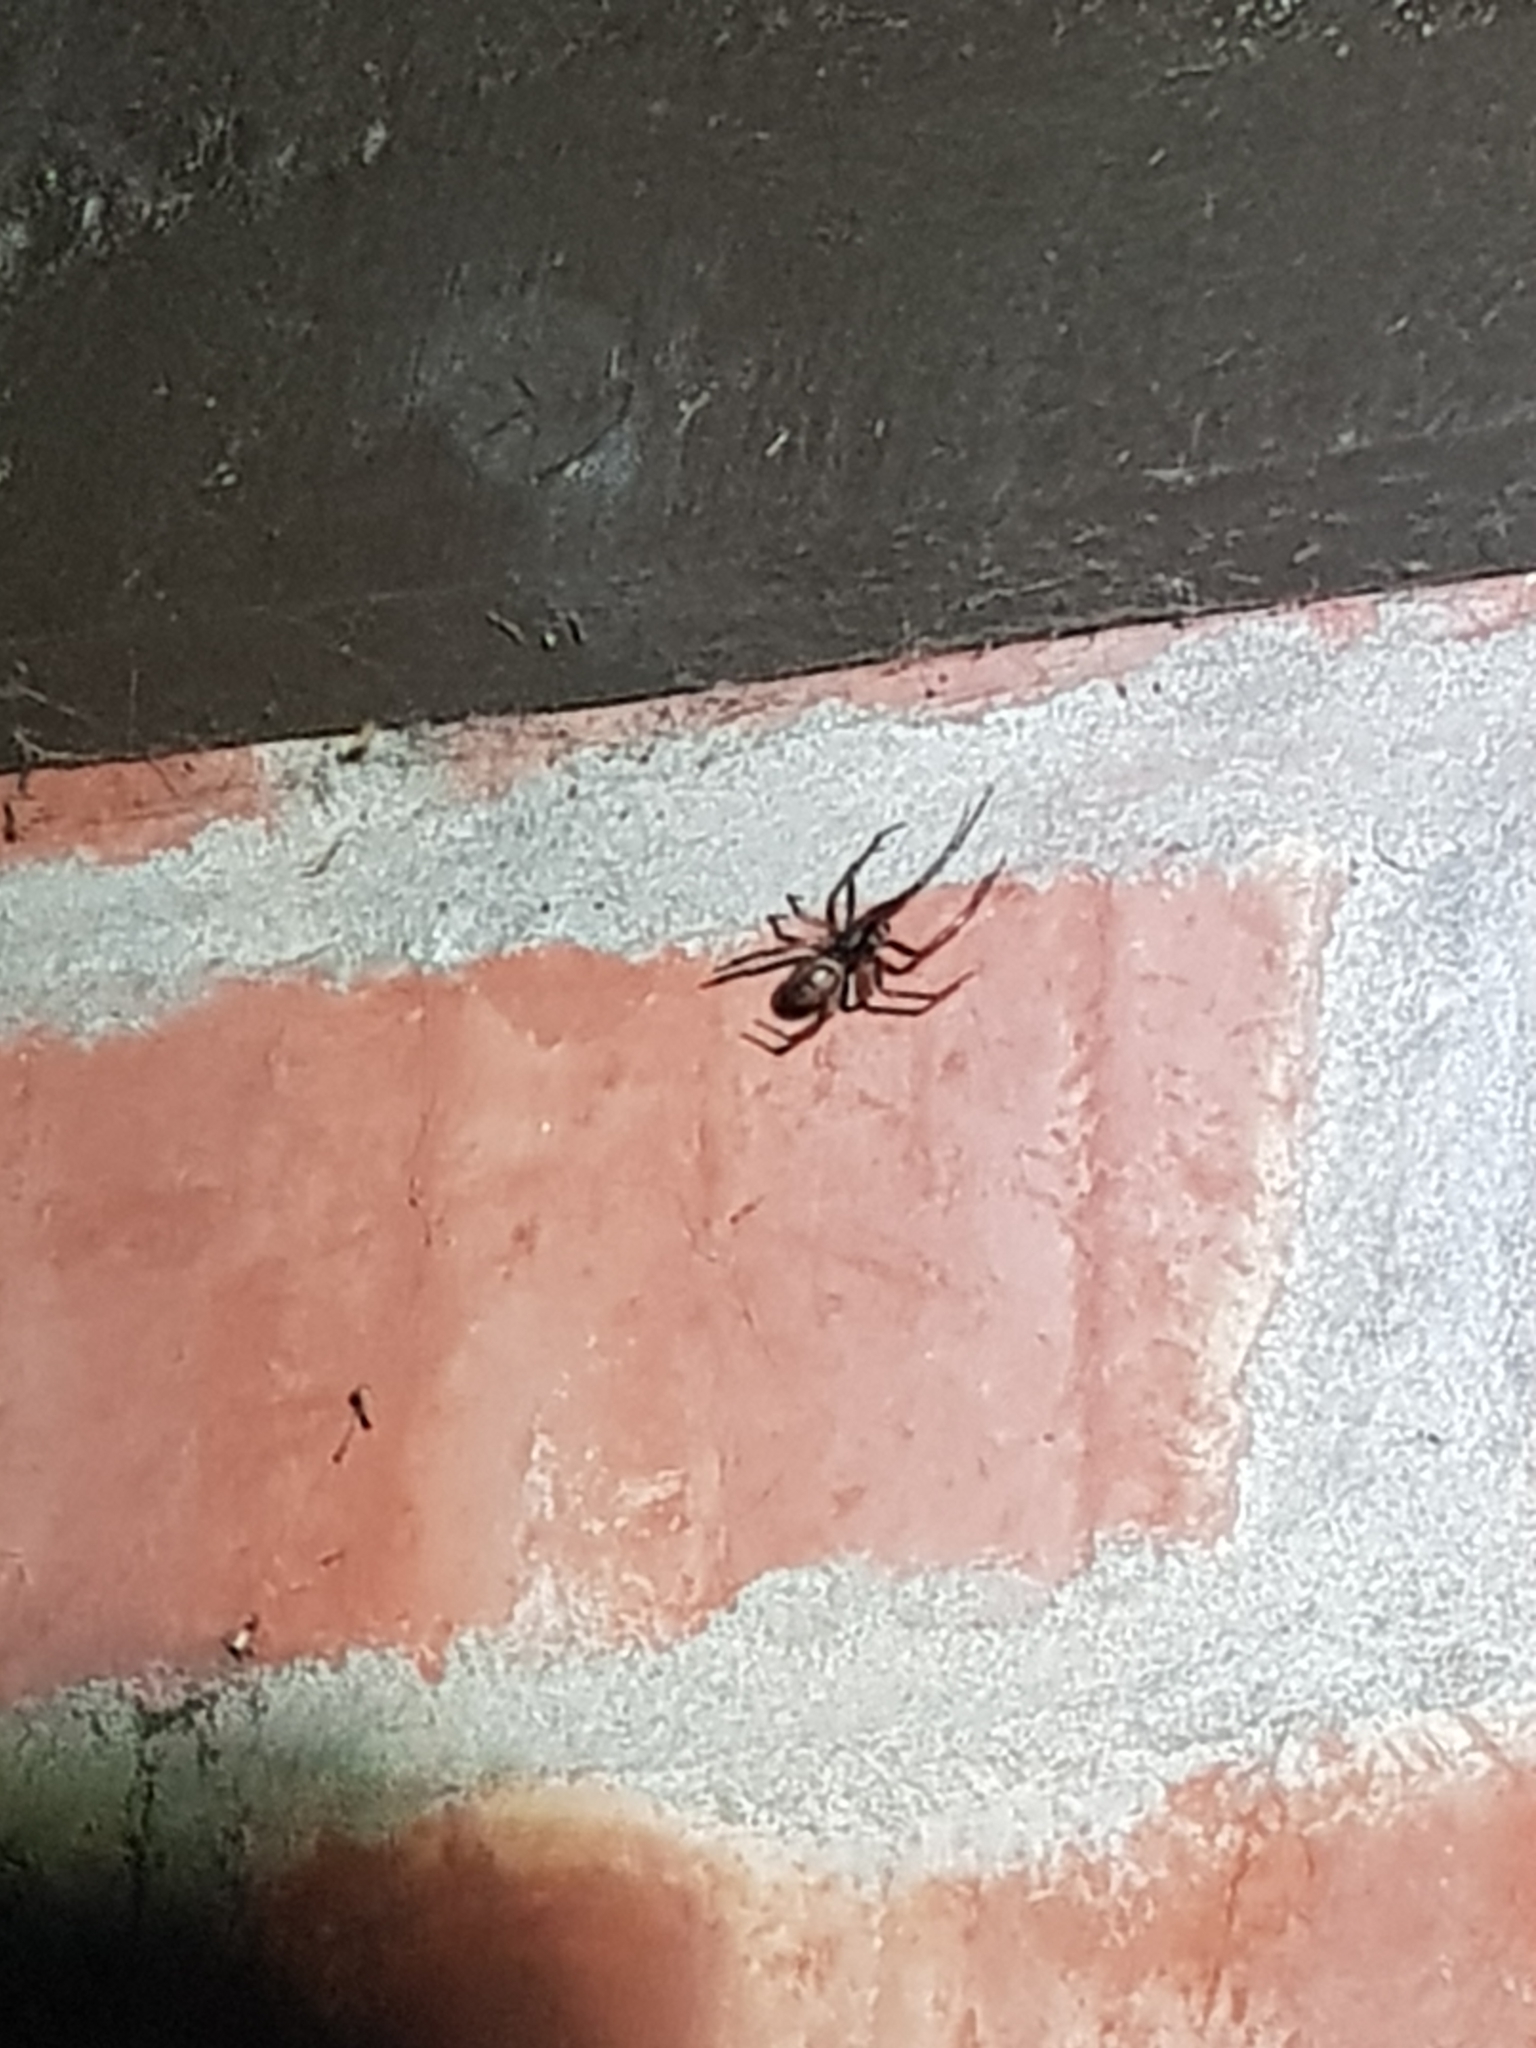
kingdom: Animalia
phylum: Arthropoda
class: Arachnida
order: Araneae
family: Theridiidae
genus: Steatoda
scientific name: Steatoda nobilis
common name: Cobweb weaver
